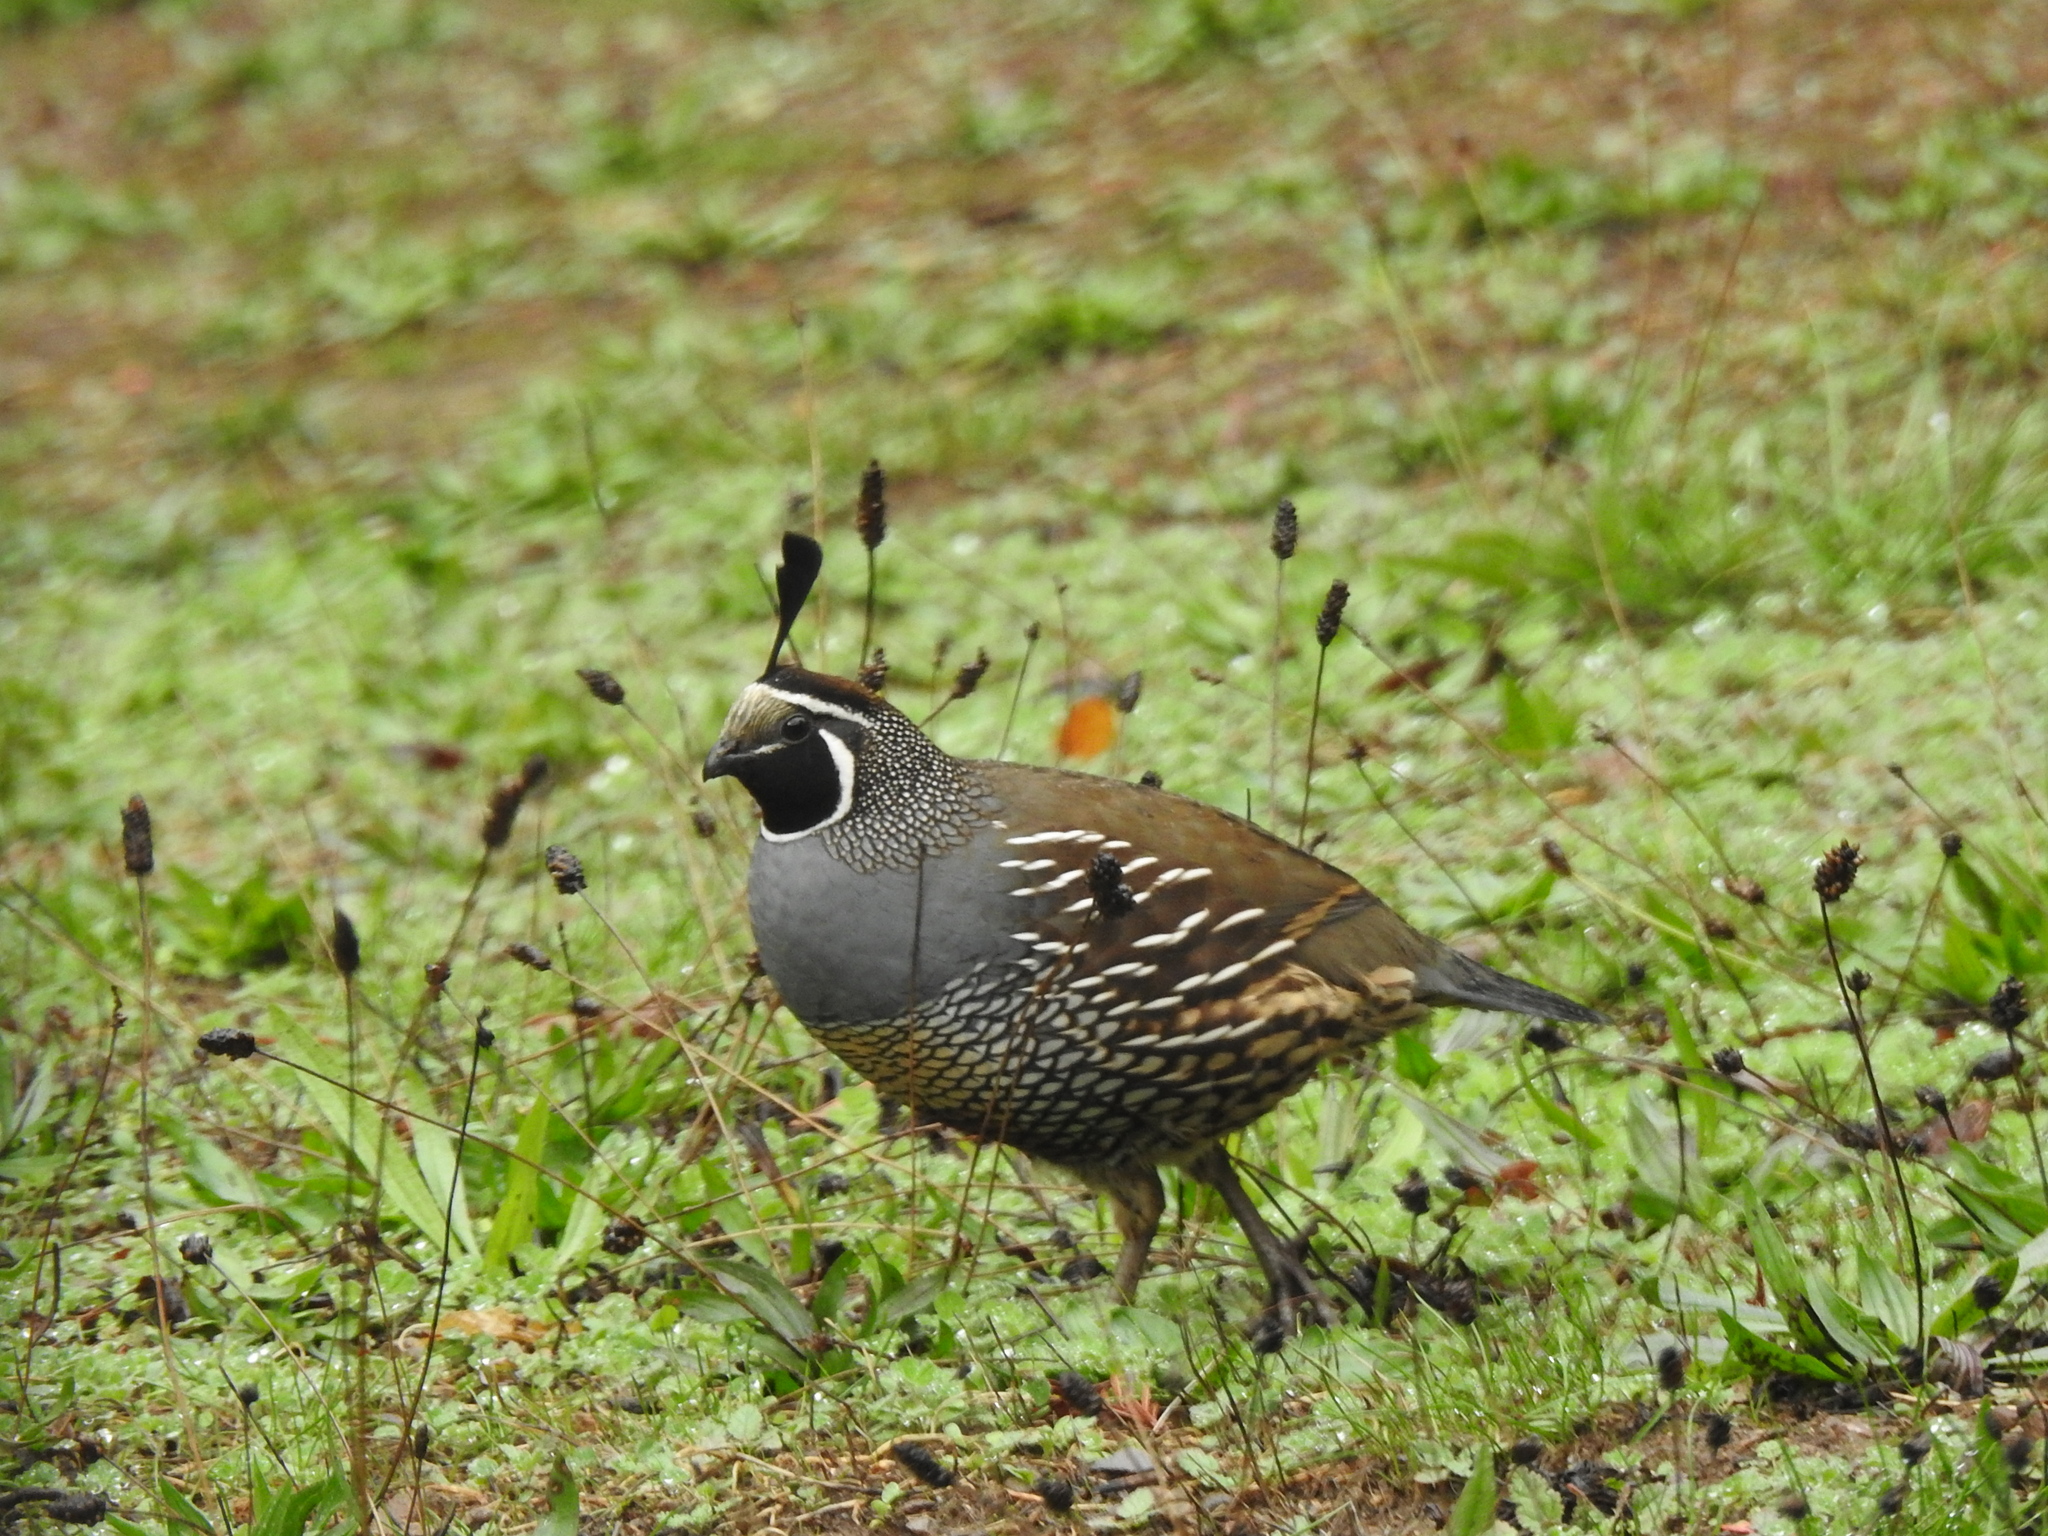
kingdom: Animalia
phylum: Chordata
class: Aves
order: Galliformes
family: Odontophoridae
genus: Callipepla
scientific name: Callipepla californica
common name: California quail
